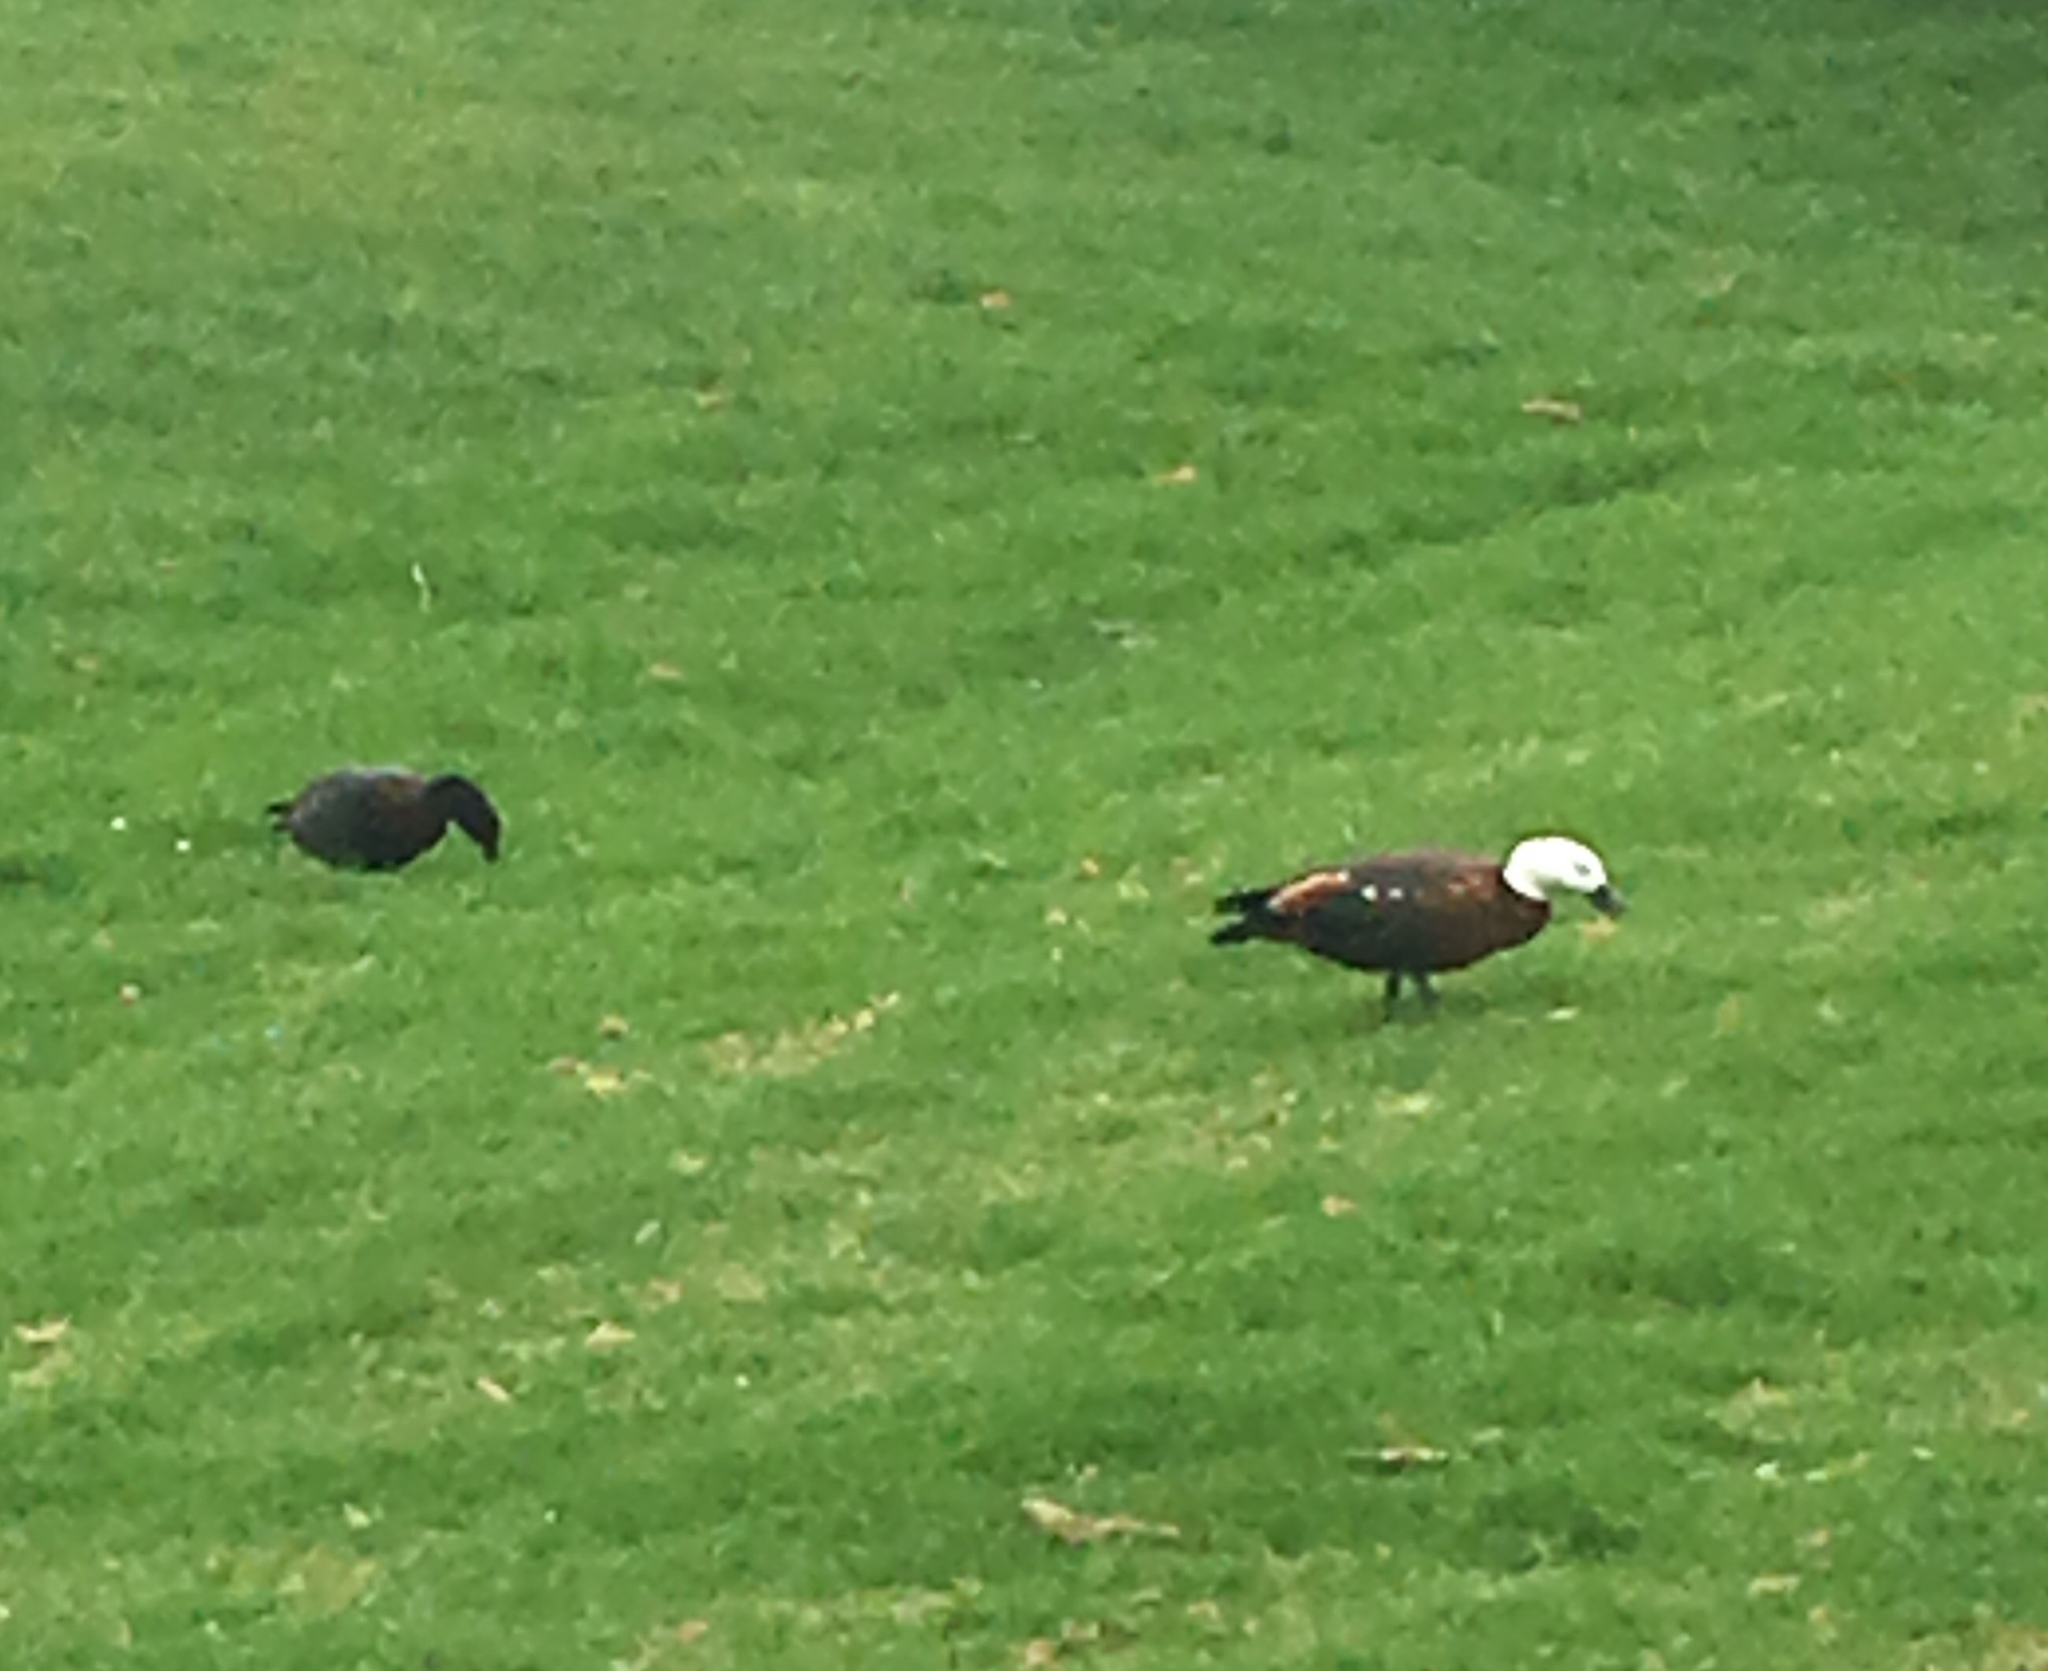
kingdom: Animalia
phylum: Chordata
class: Aves
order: Anseriformes
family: Anatidae
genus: Tadorna
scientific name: Tadorna variegata
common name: Paradise shelduck
